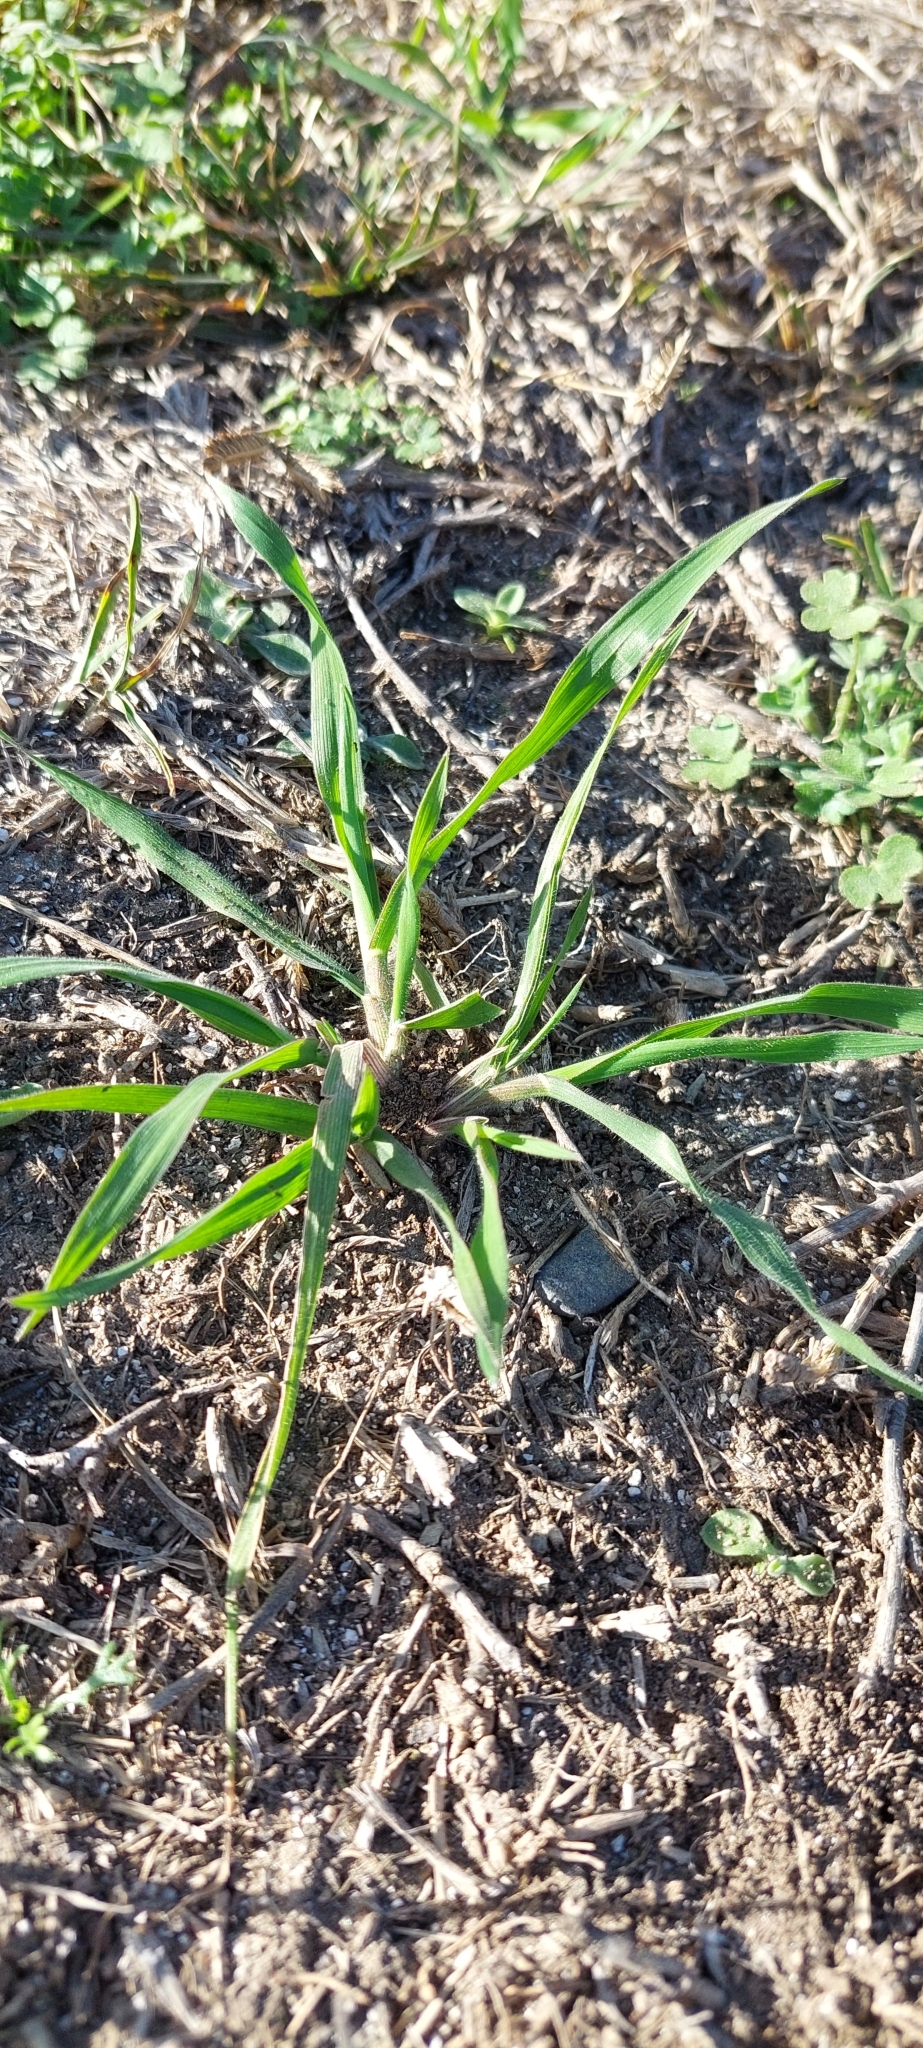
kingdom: Plantae
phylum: Tracheophyta
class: Liliopsida
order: Poales
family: Poaceae
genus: Eleusine
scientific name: Eleusine indica
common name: Yard-grass
